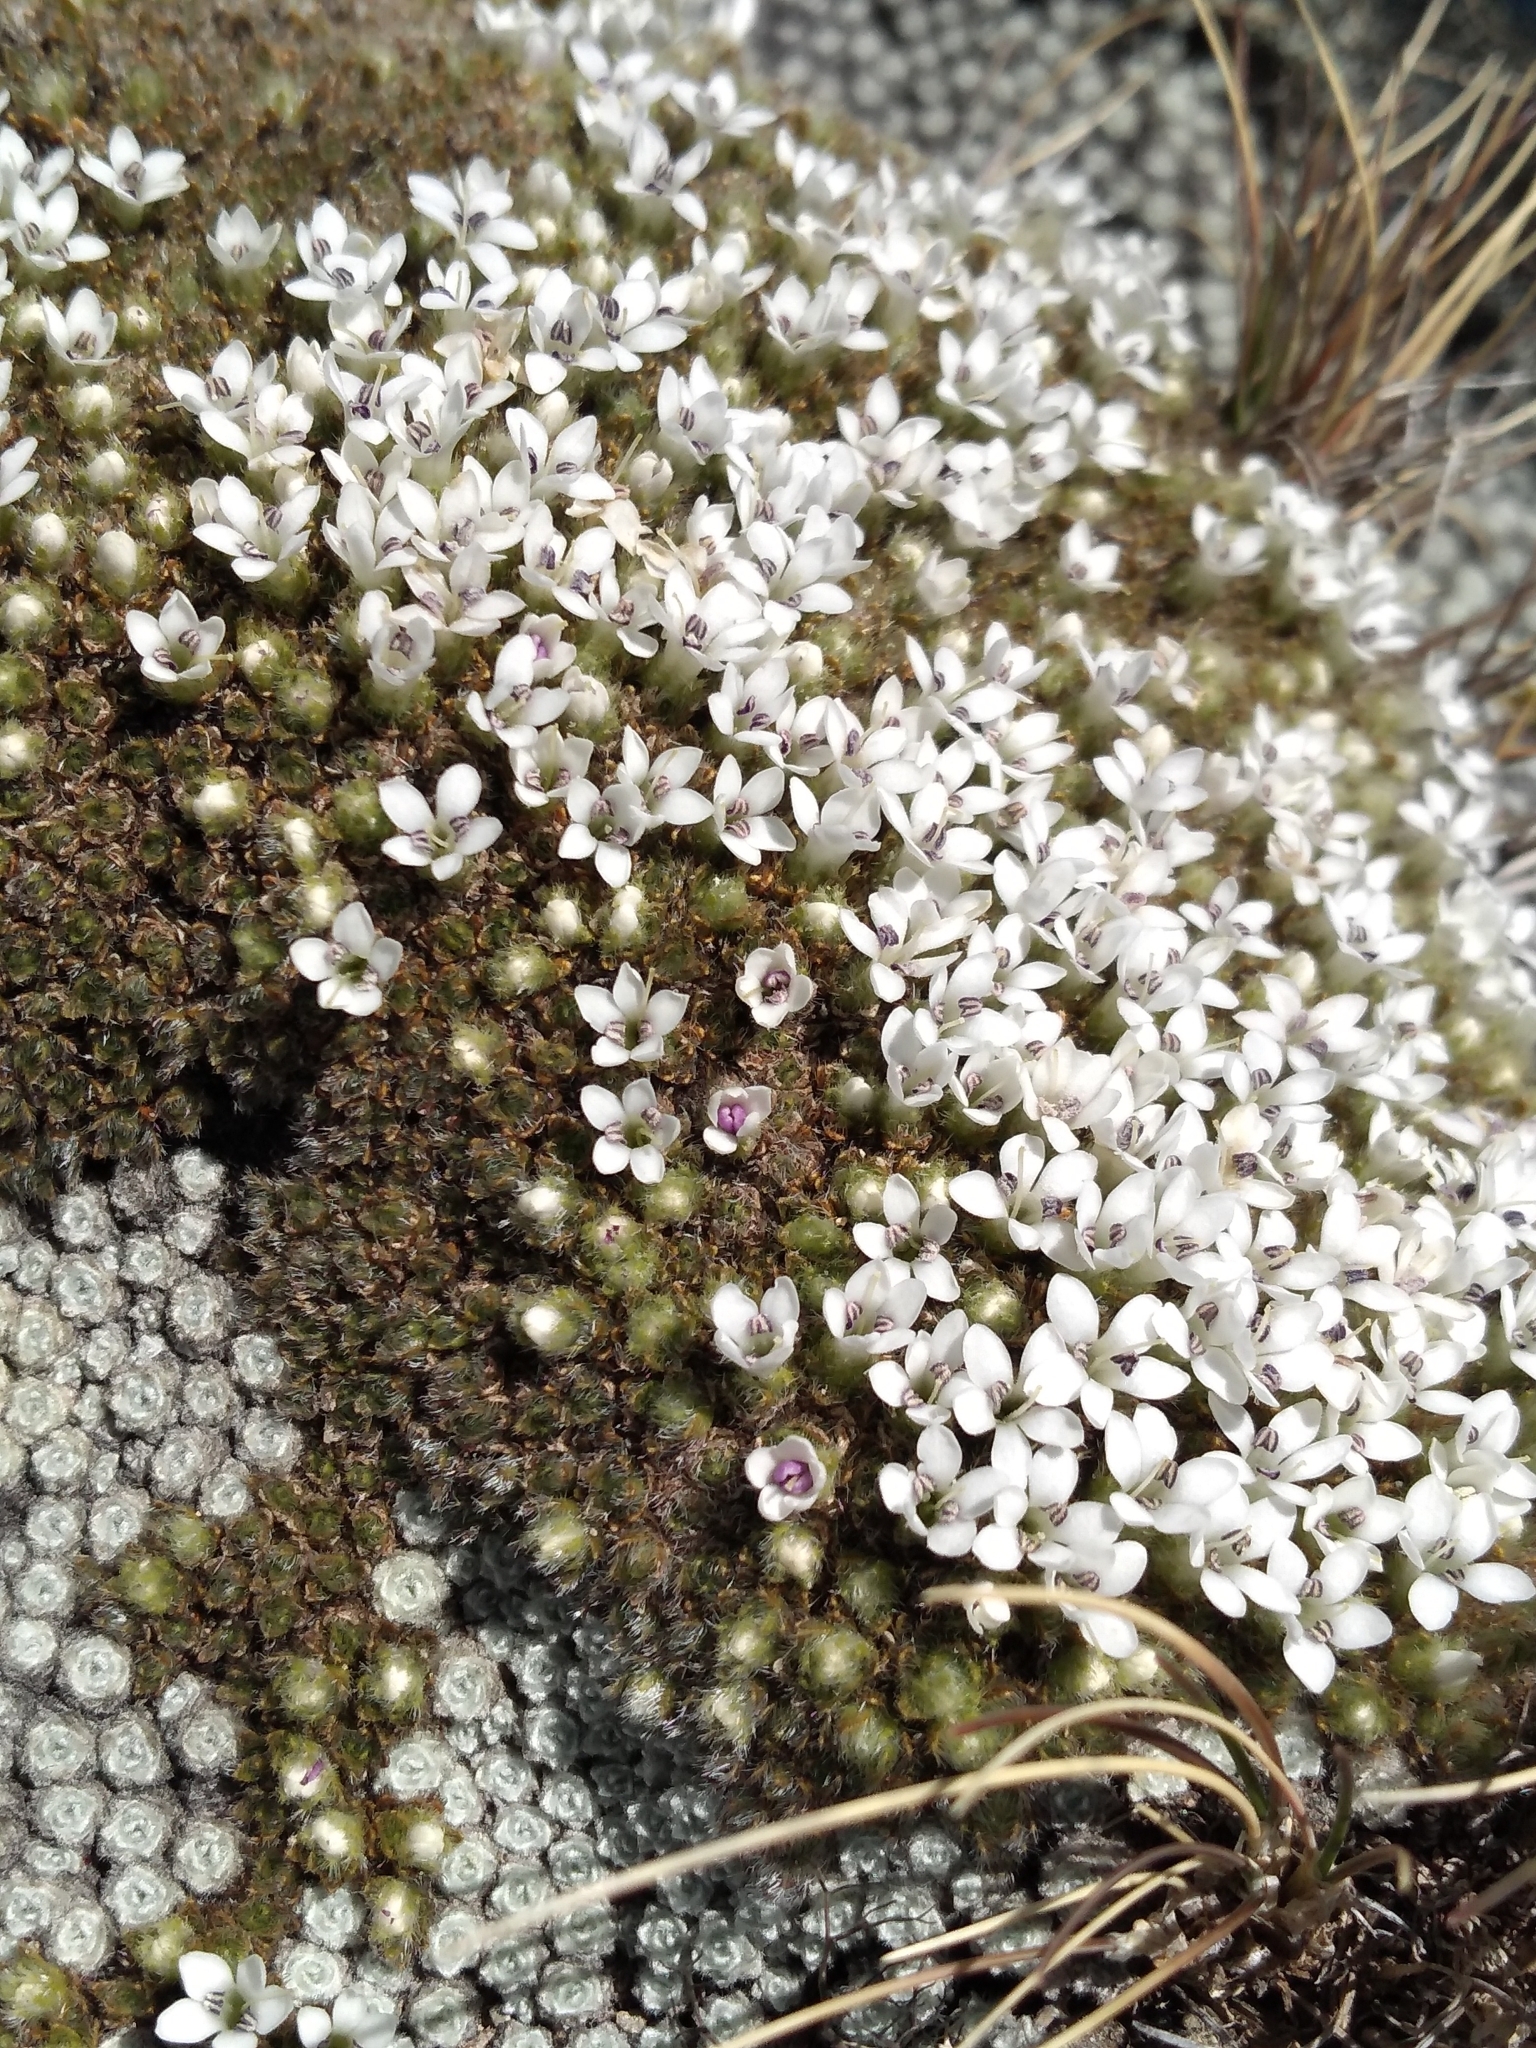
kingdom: Plantae
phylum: Tracheophyta
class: Magnoliopsida
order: Lamiales
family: Plantaginaceae
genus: Veronica
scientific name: Veronica pulvinaris
